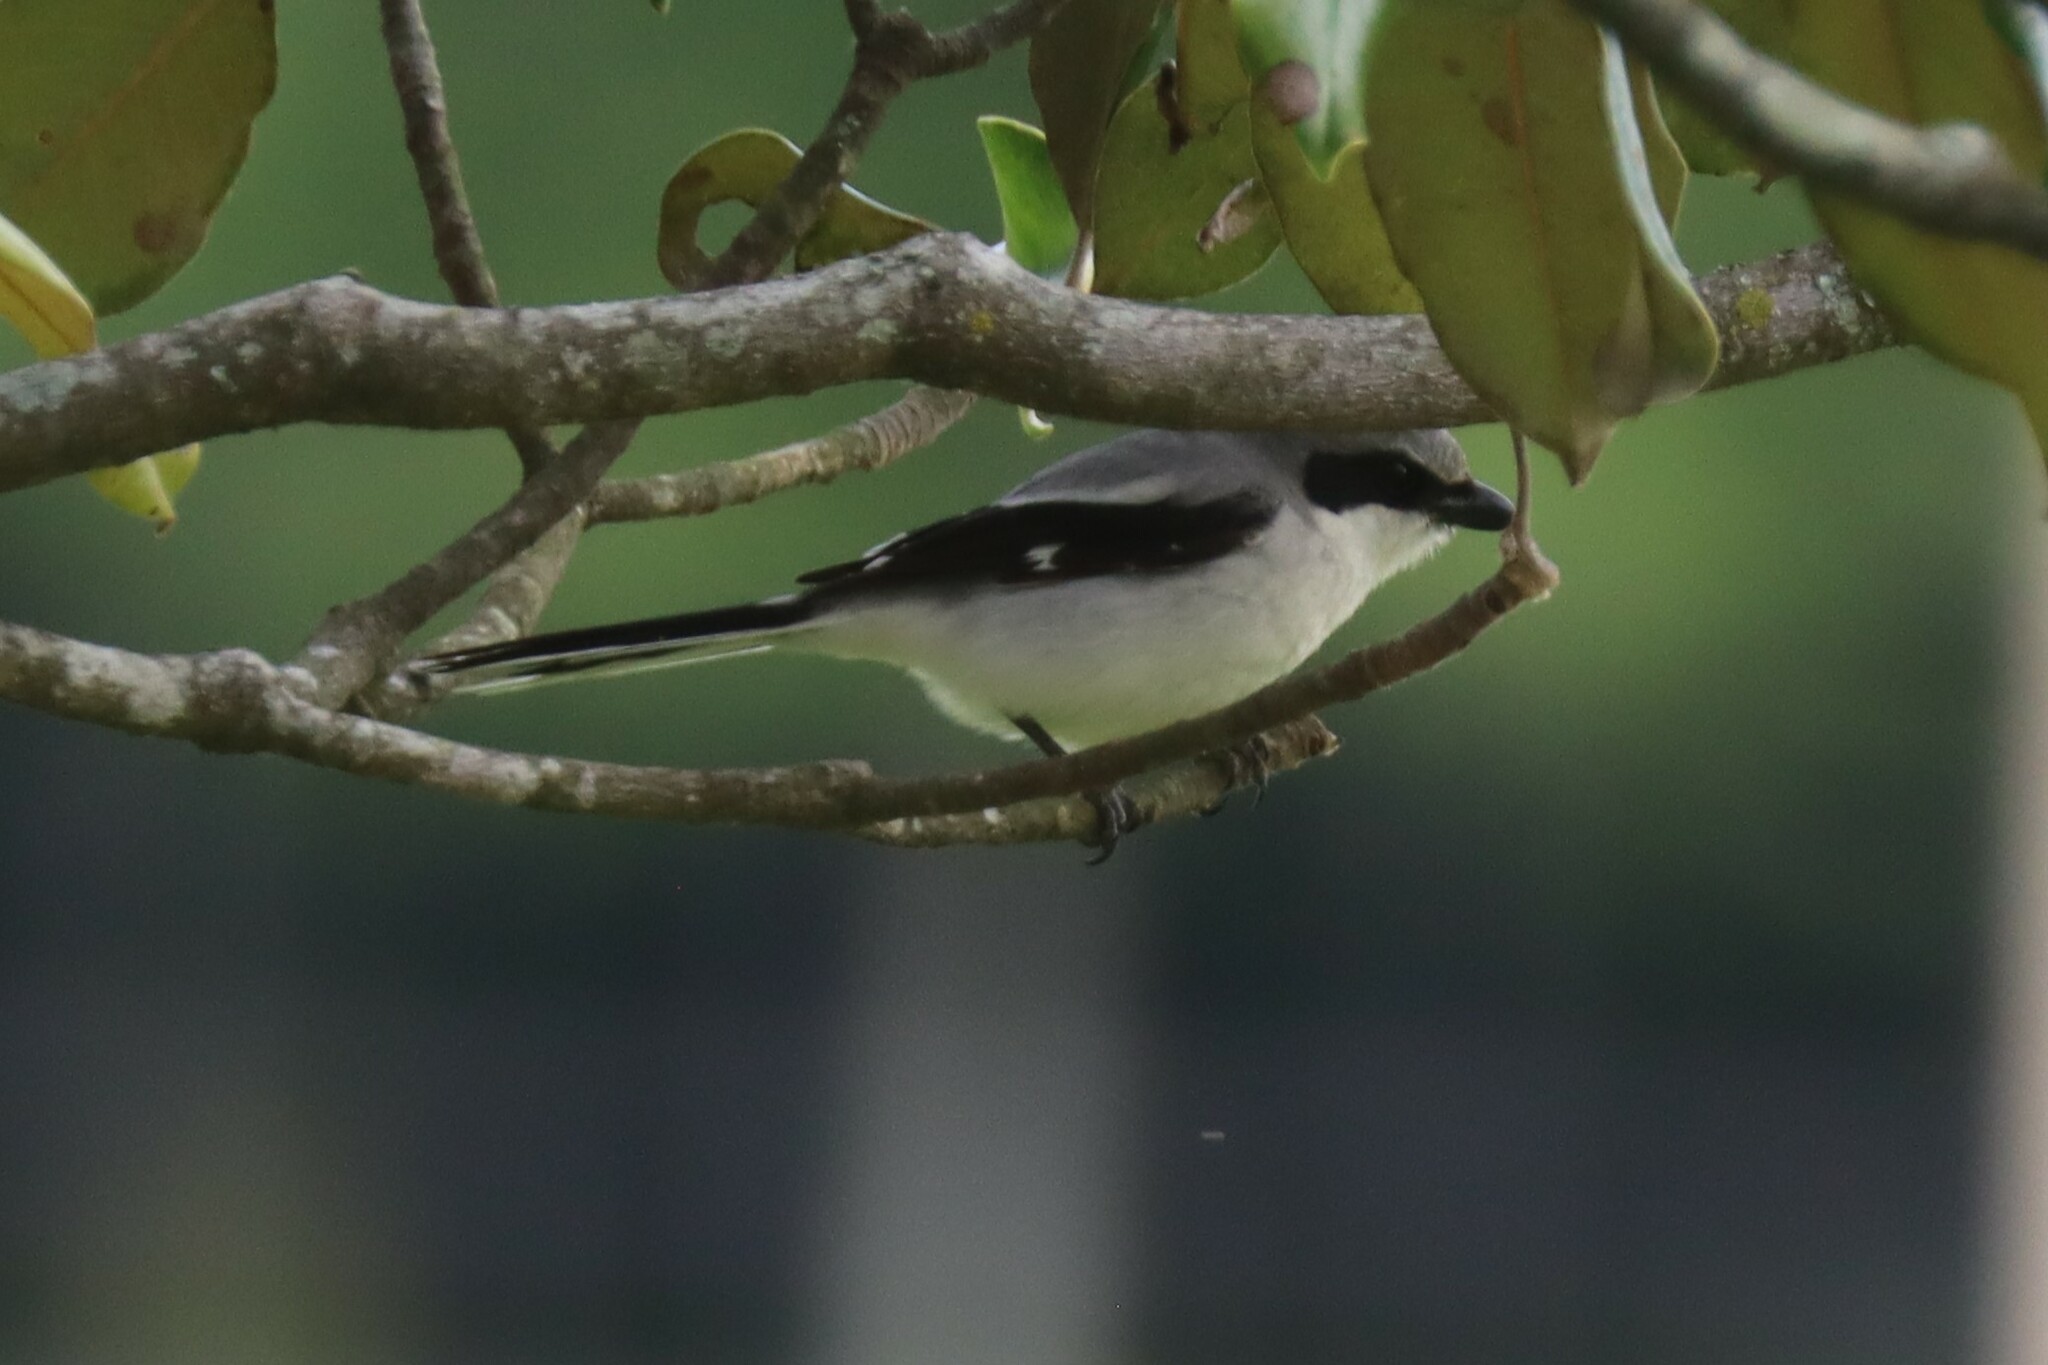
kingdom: Animalia
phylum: Chordata
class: Aves
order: Passeriformes
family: Laniidae
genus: Lanius
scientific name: Lanius ludovicianus
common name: Loggerhead shrike
